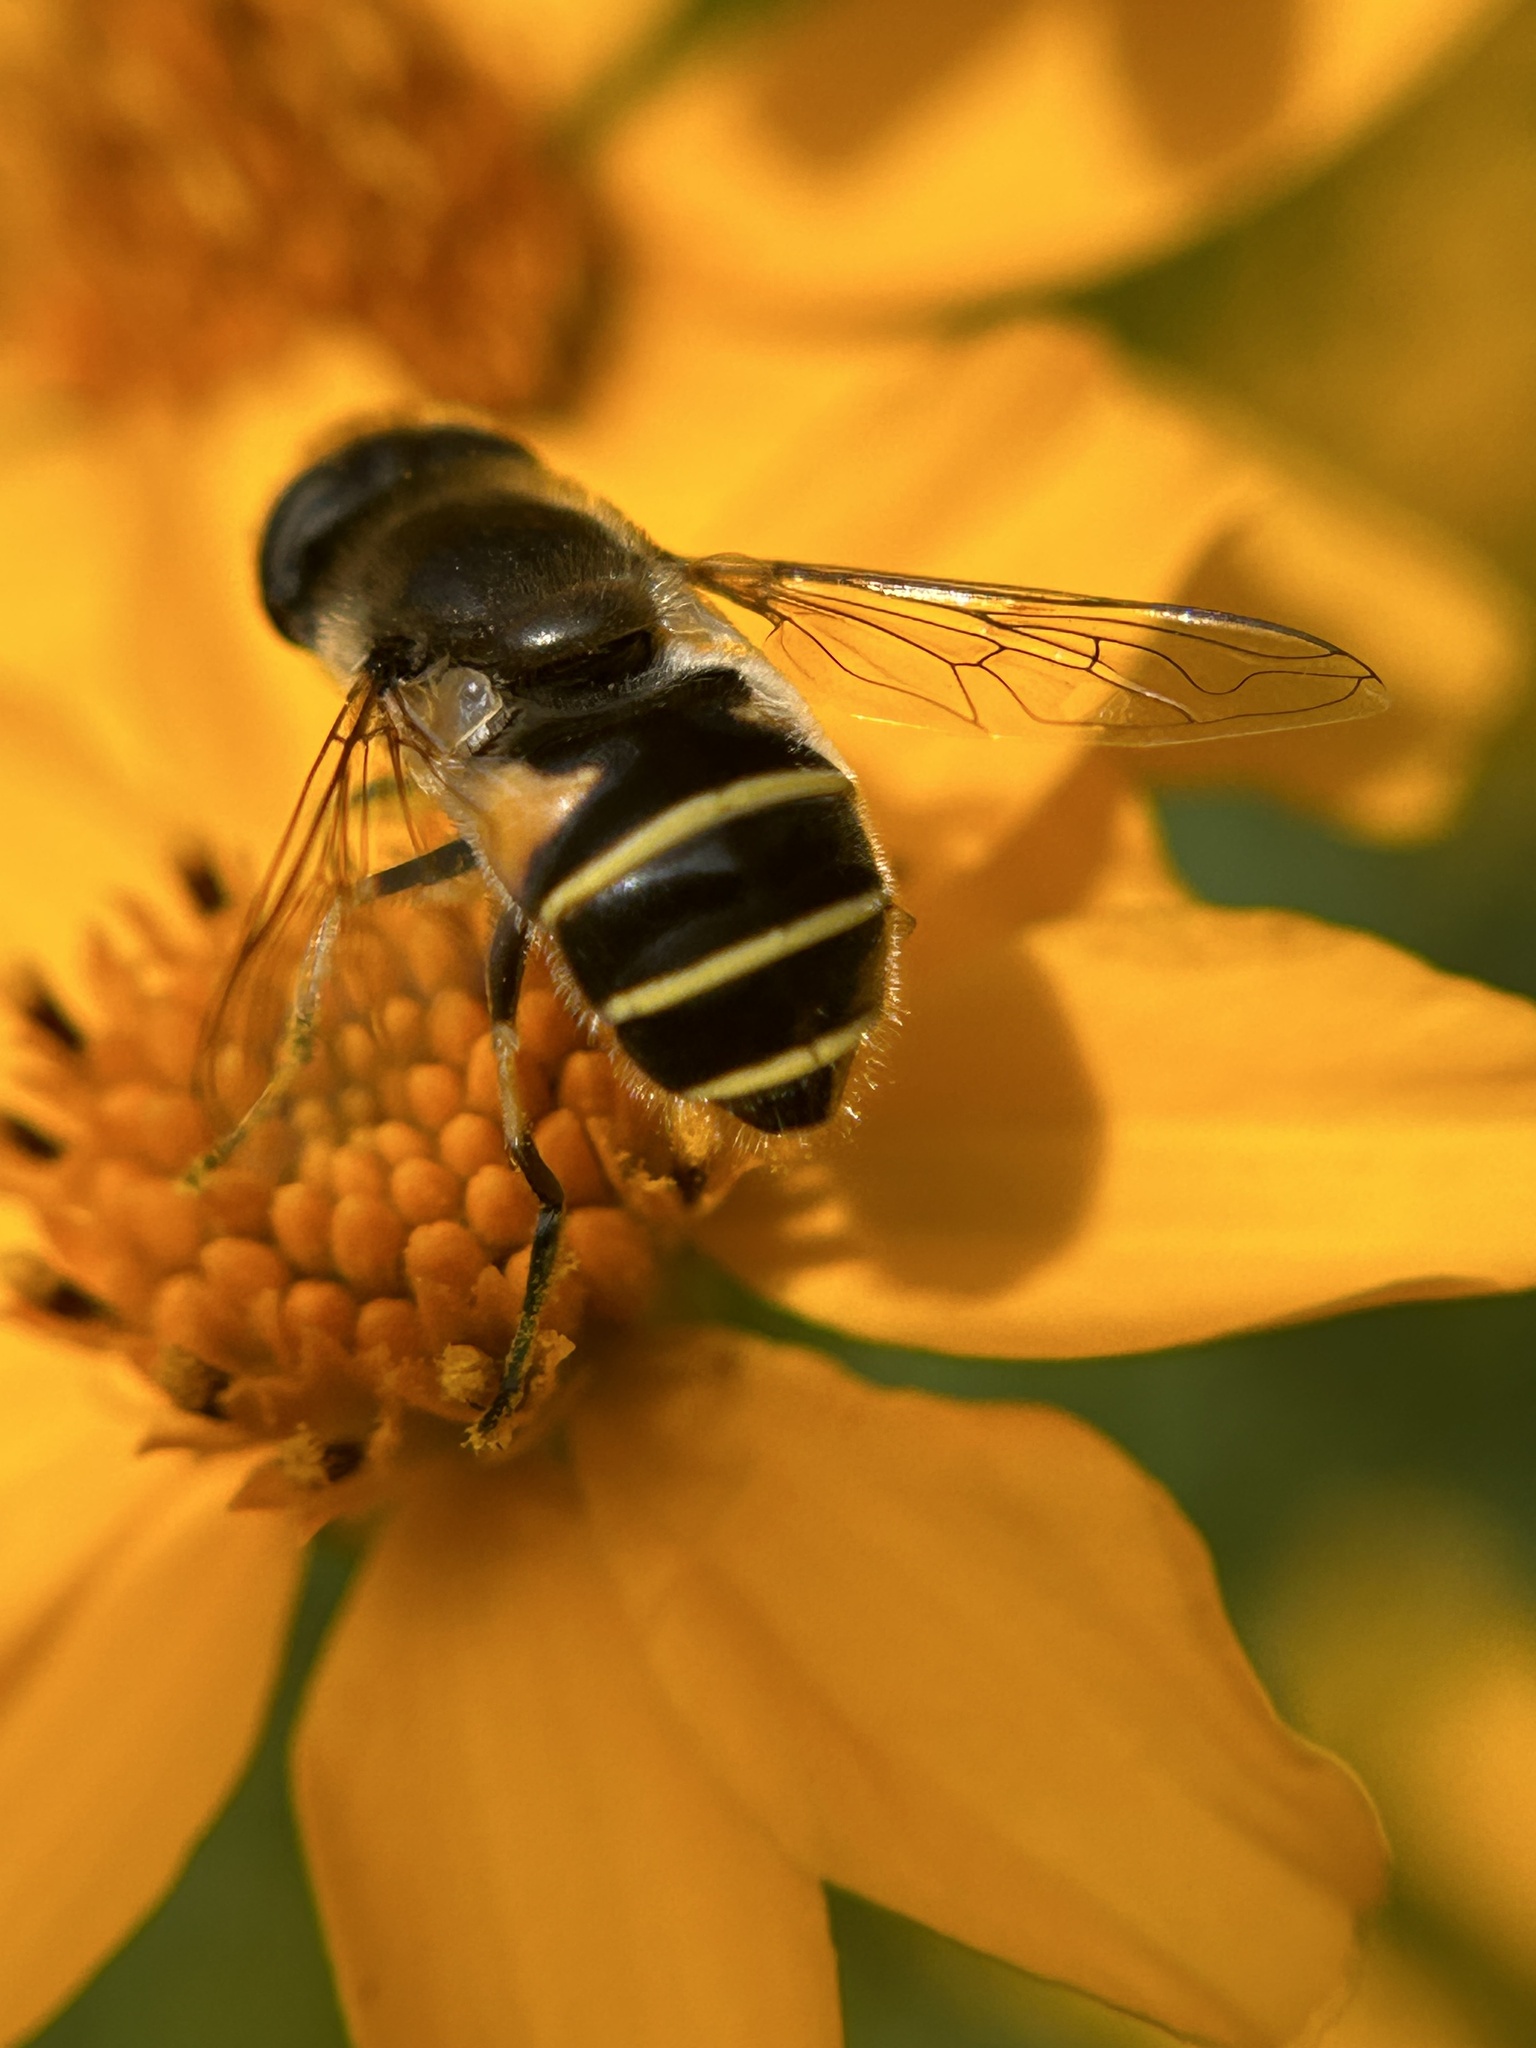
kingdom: Animalia
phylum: Arthropoda
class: Insecta
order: Diptera
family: Syrphidae
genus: Eristalis
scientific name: Eristalis hirta
